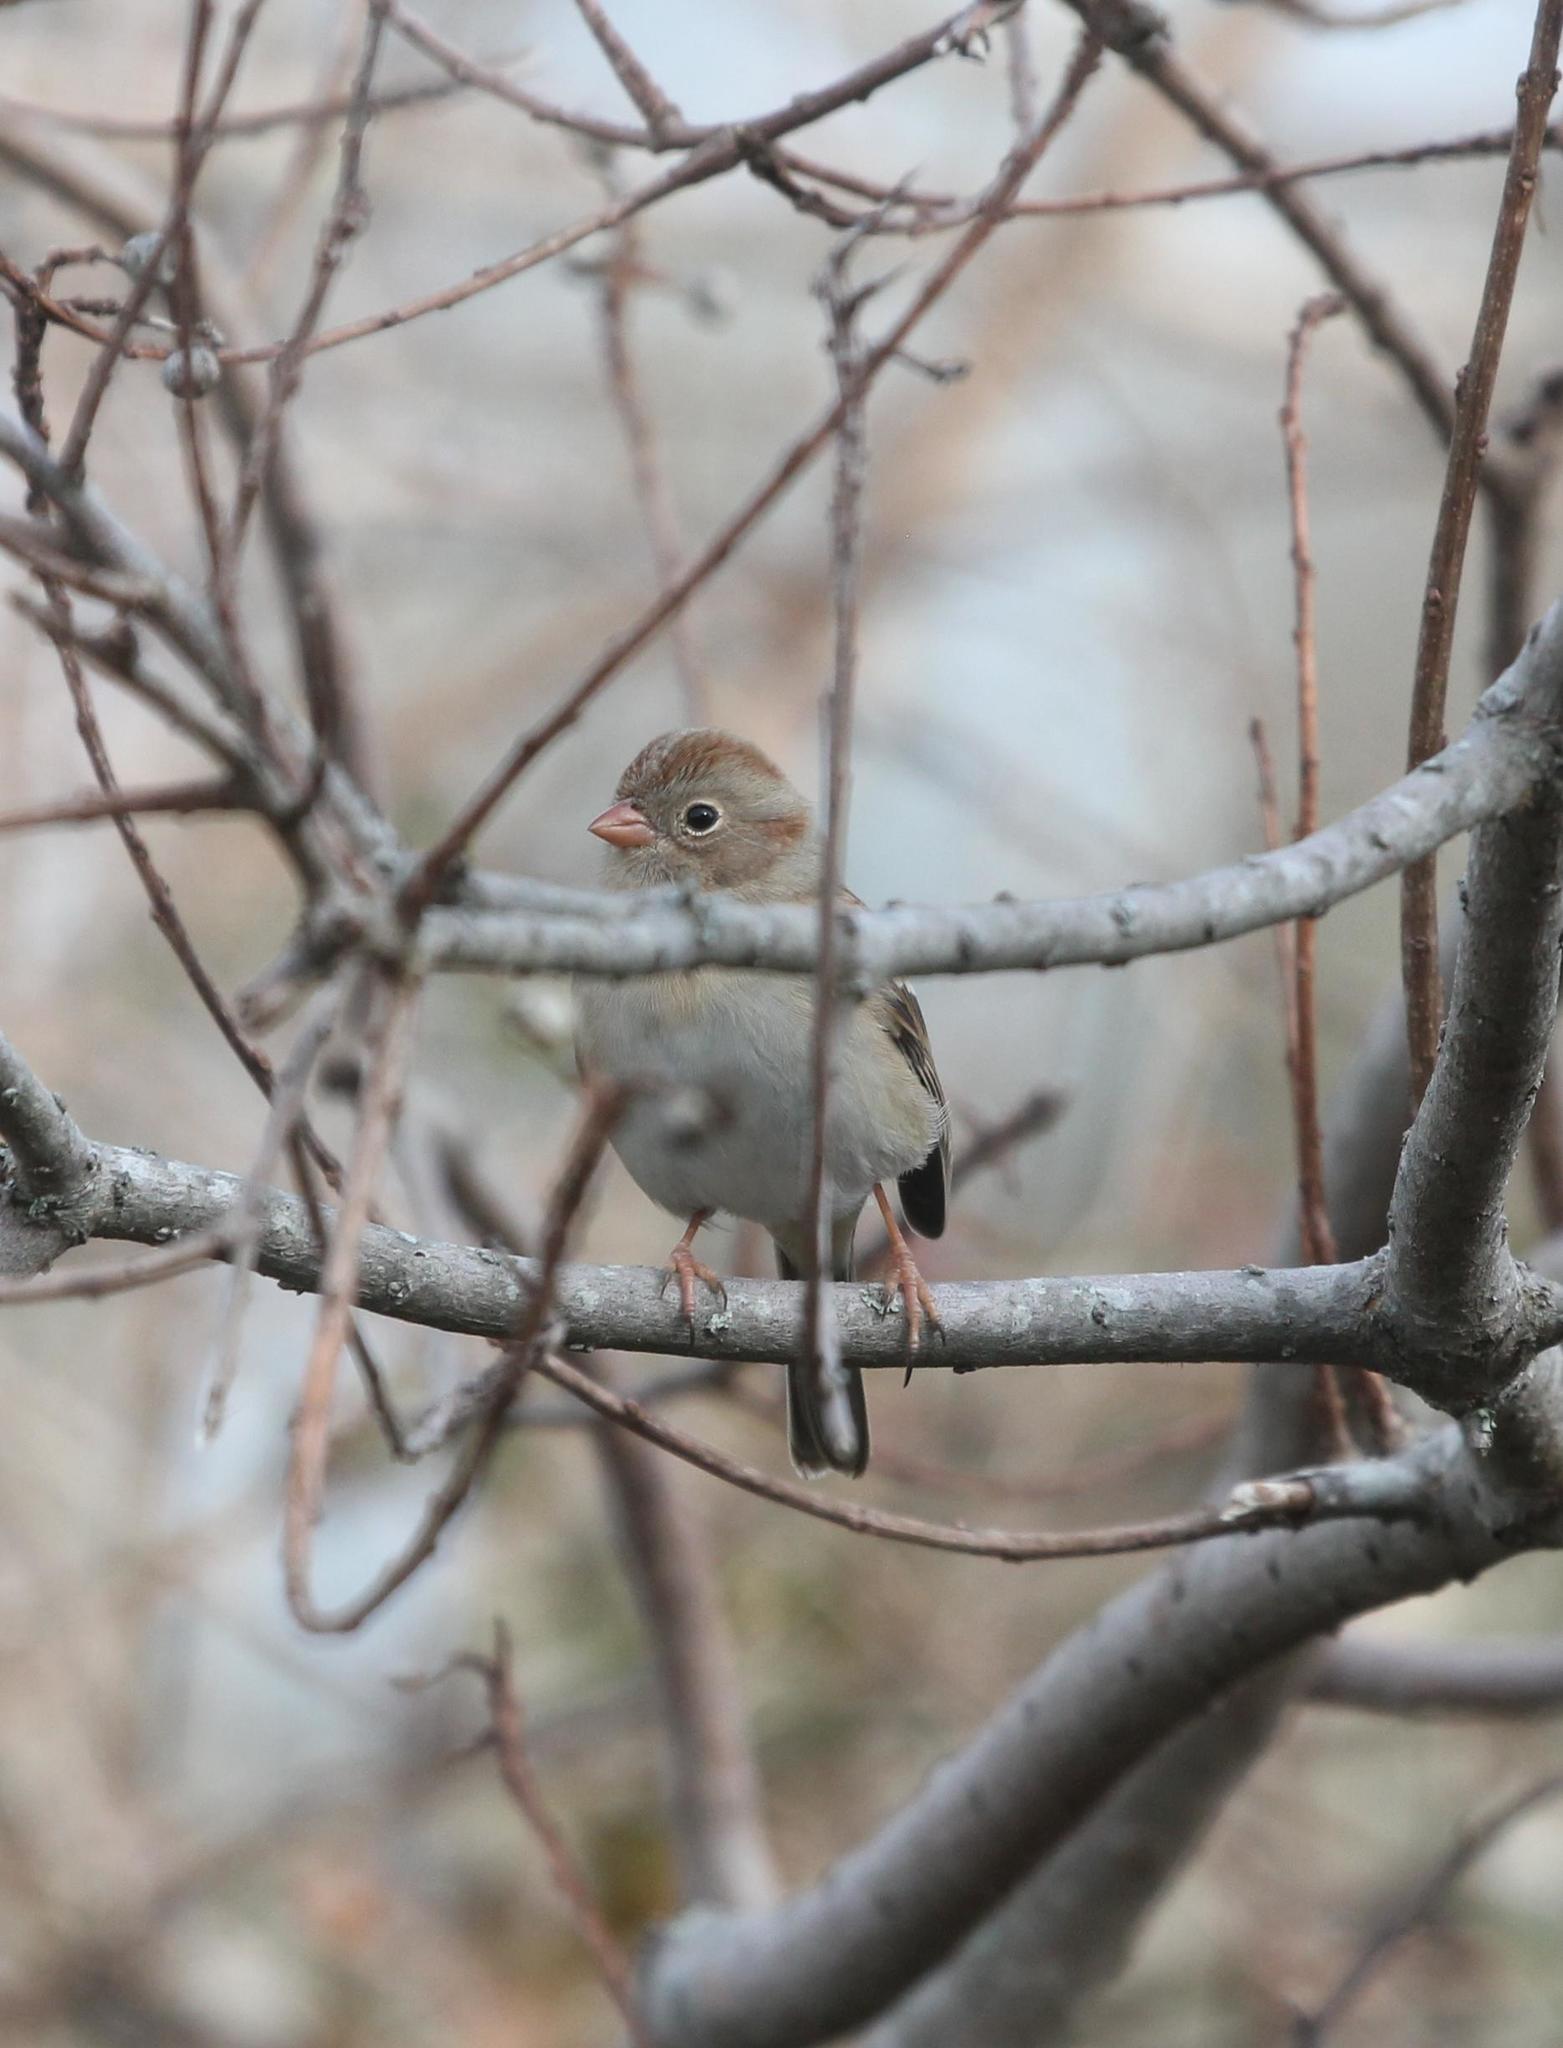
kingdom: Animalia
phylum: Chordata
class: Aves
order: Passeriformes
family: Passerellidae
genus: Spizella
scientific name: Spizella pusilla
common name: Field sparrow
